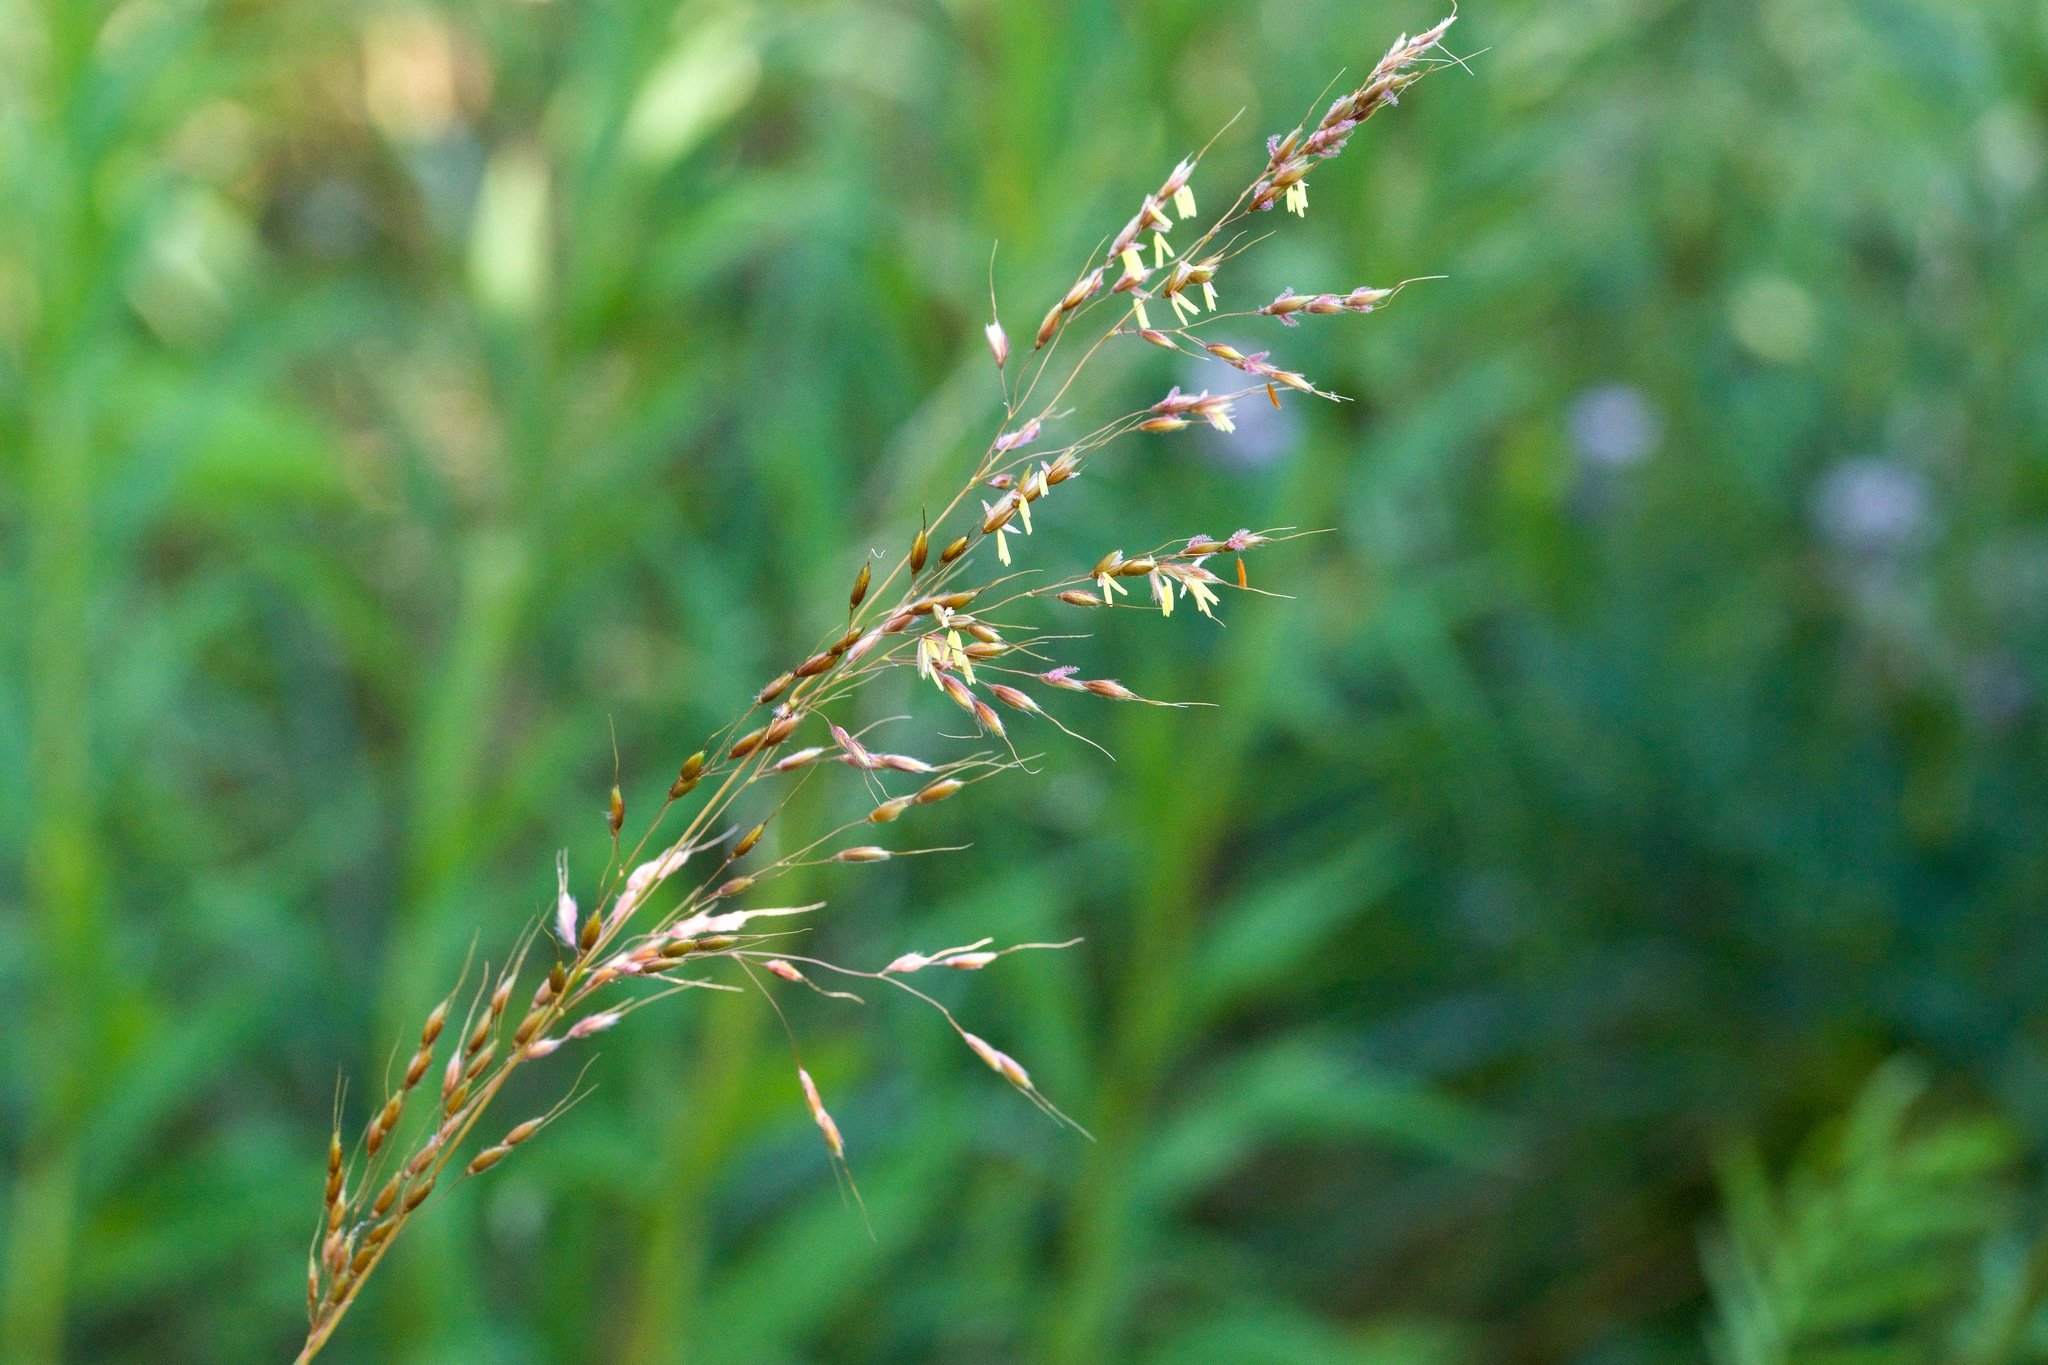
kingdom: Plantae
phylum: Tracheophyta
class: Liliopsida
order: Poales
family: Poaceae
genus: Sorghastrum
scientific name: Sorghastrum nutans
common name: Indian grass
